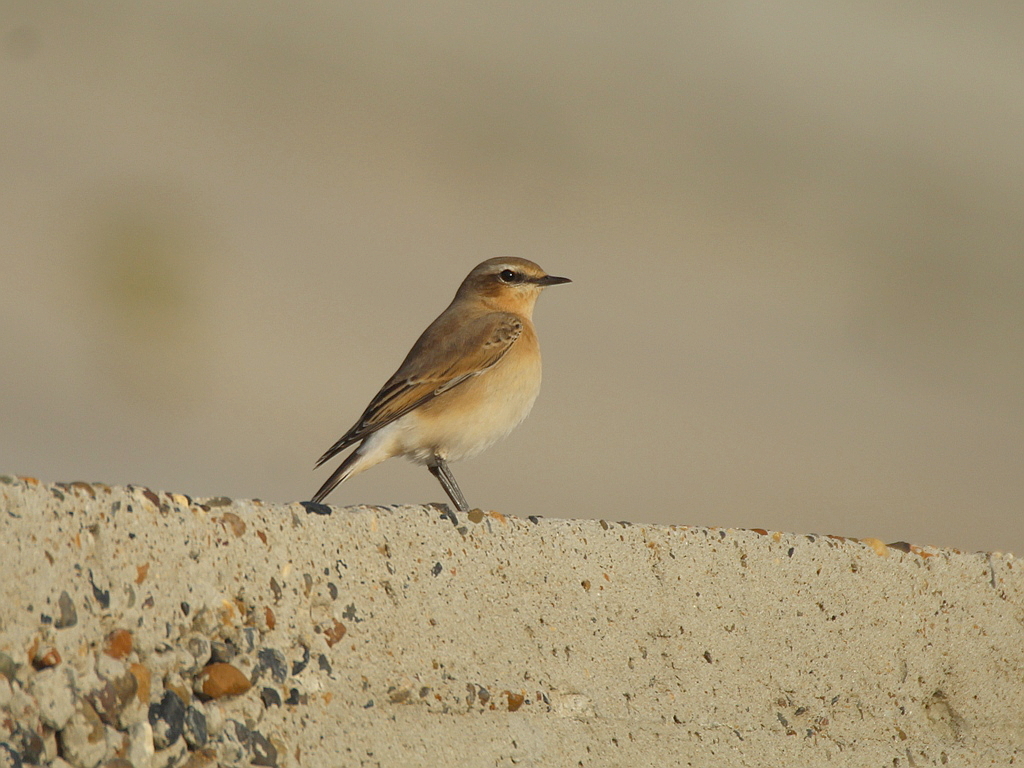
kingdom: Animalia
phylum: Chordata
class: Aves
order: Passeriformes
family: Muscicapidae
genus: Oenanthe
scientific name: Oenanthe oenanthe
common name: Northern wheatear
